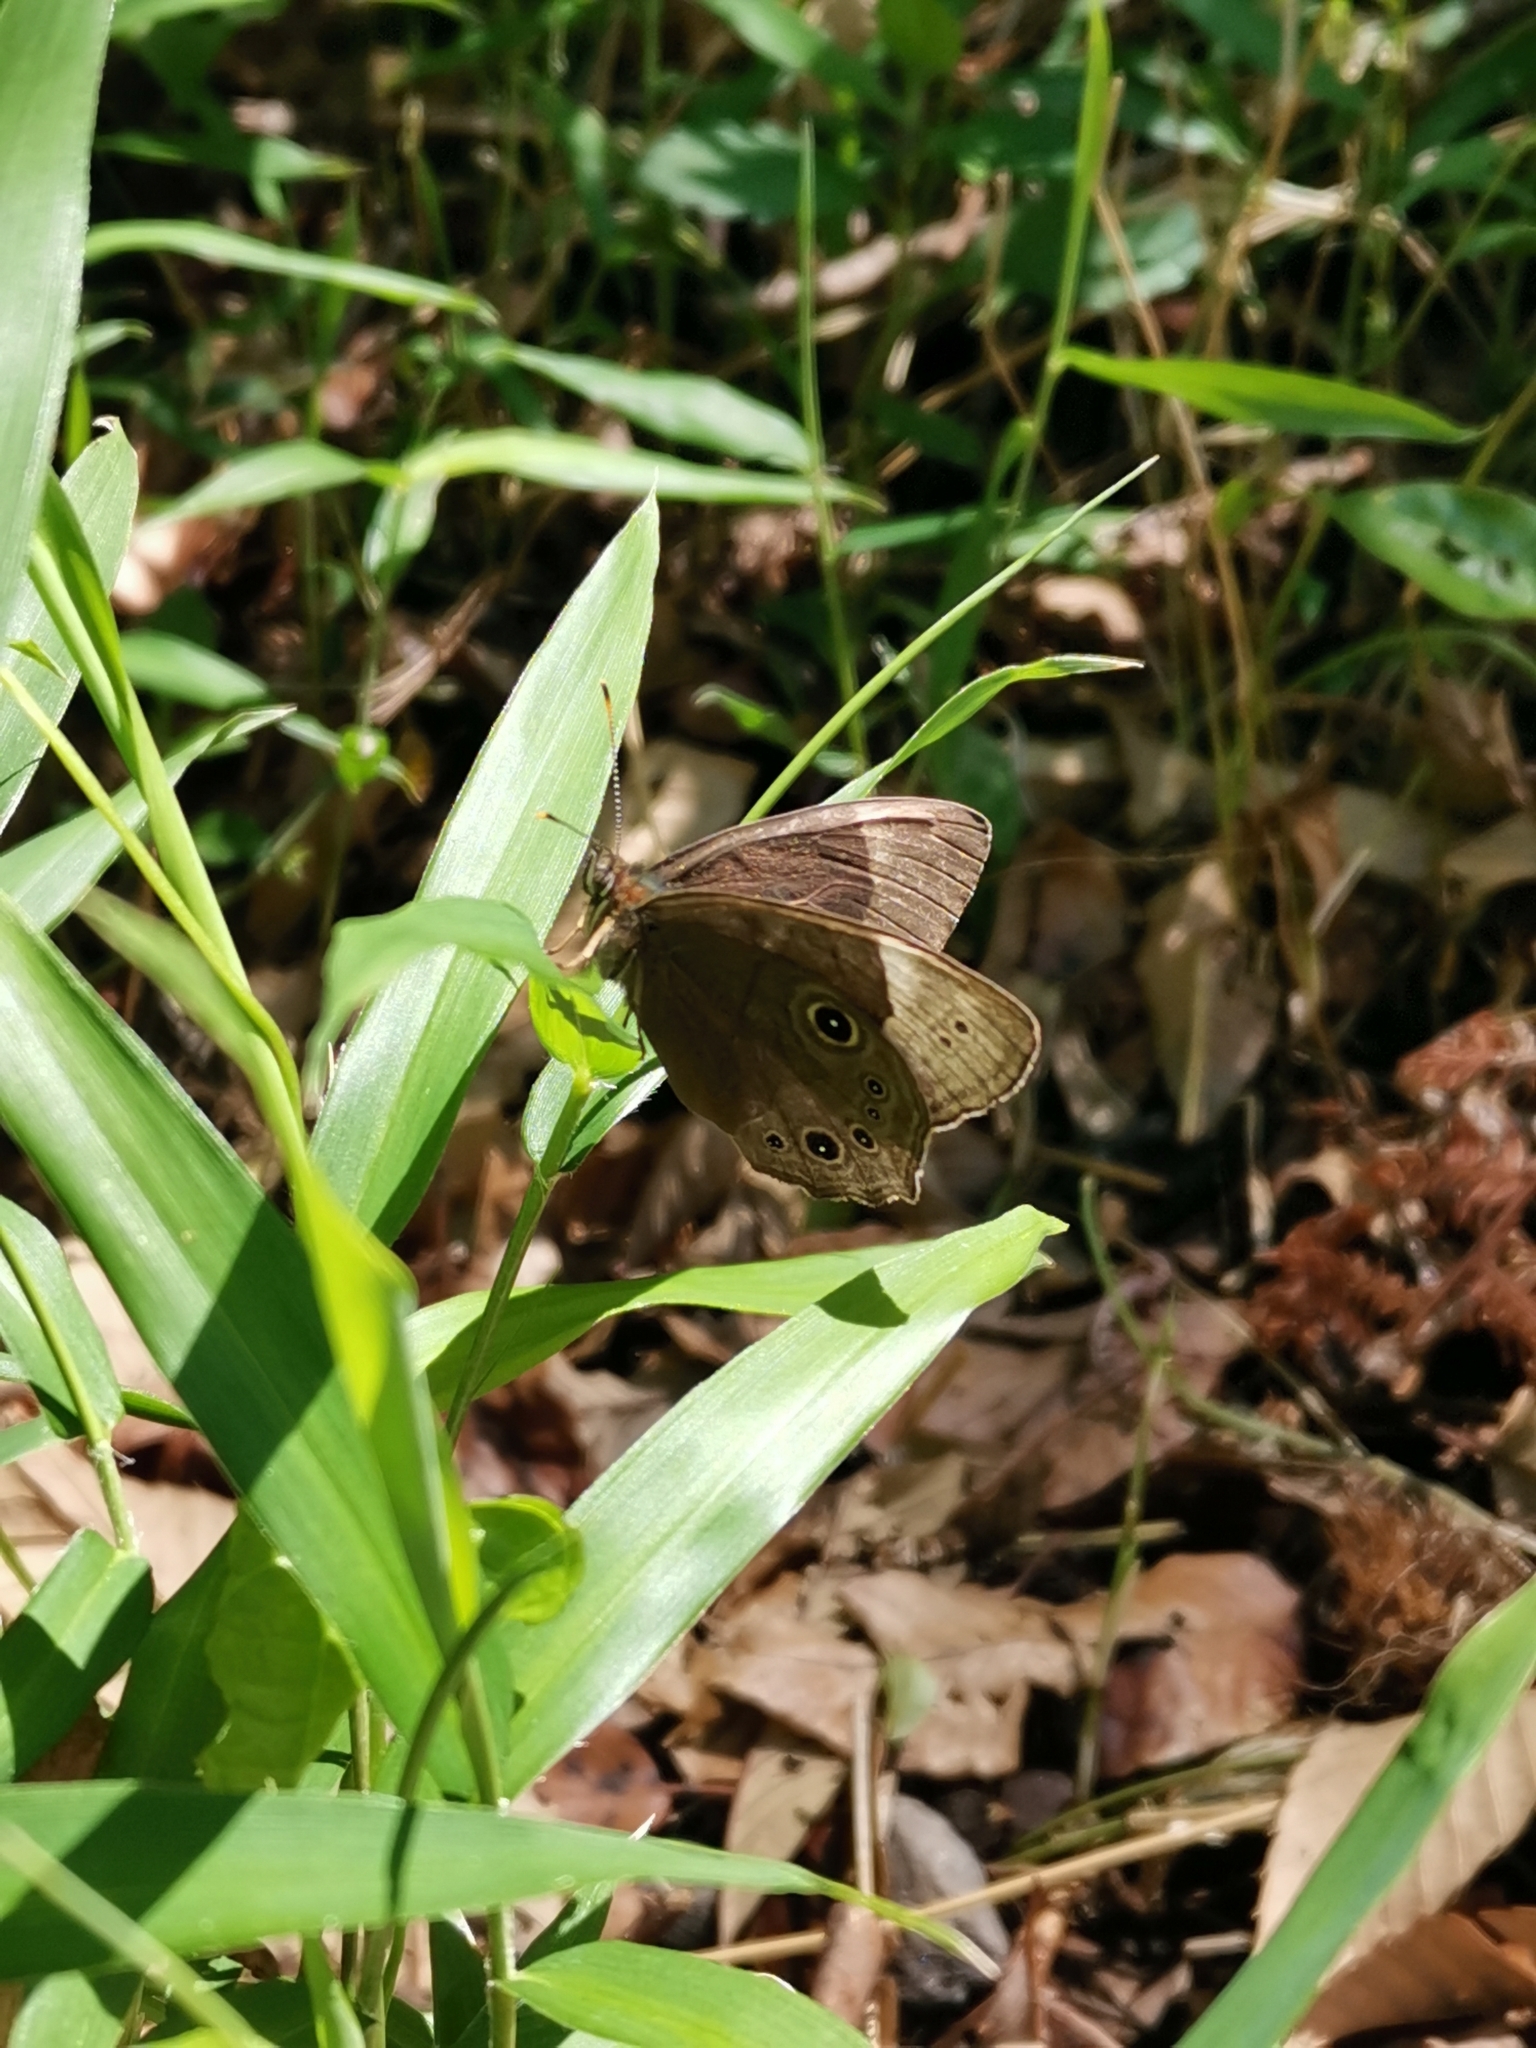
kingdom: Animalia
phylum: Arthropoda
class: Insecta
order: Lepidoptera
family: Nymphalidae
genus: Lethe
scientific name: Lethe diana
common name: Diana treebrown
